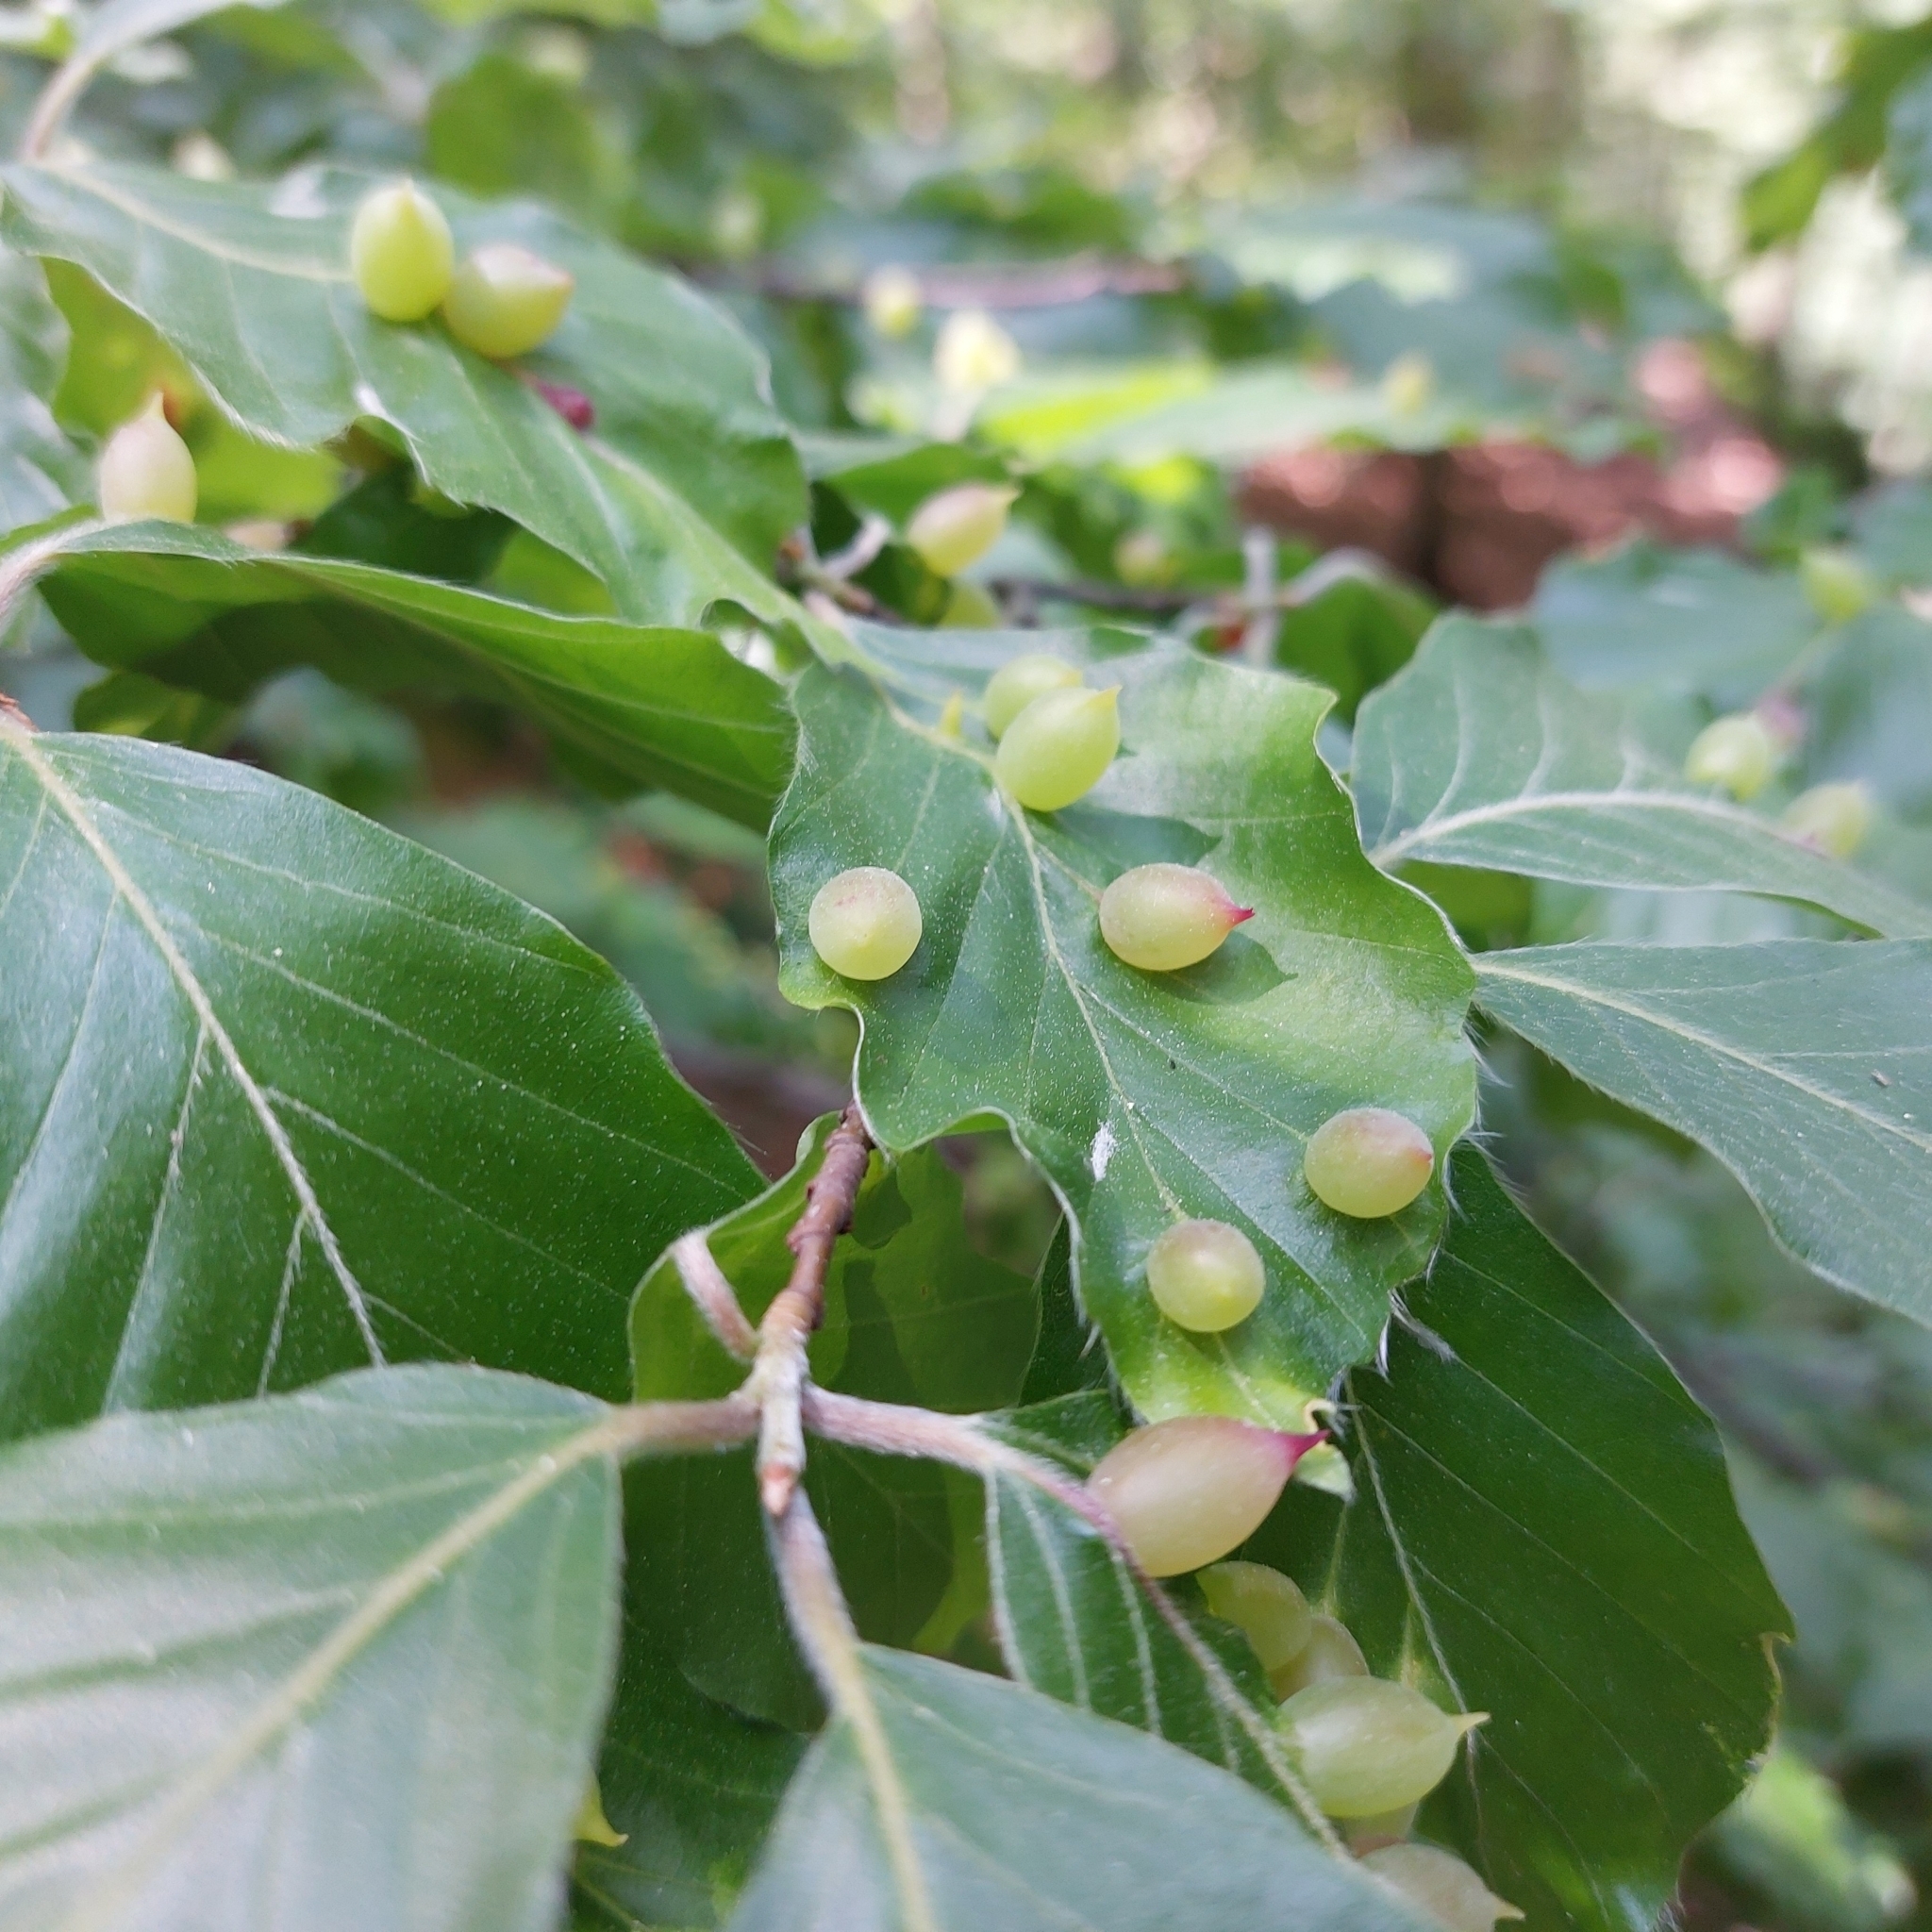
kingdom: Animalia
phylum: Arthropoda
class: Insecta
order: Diptera
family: Cecidomyiidae
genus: Mikiola
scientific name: Mikiola fagi
